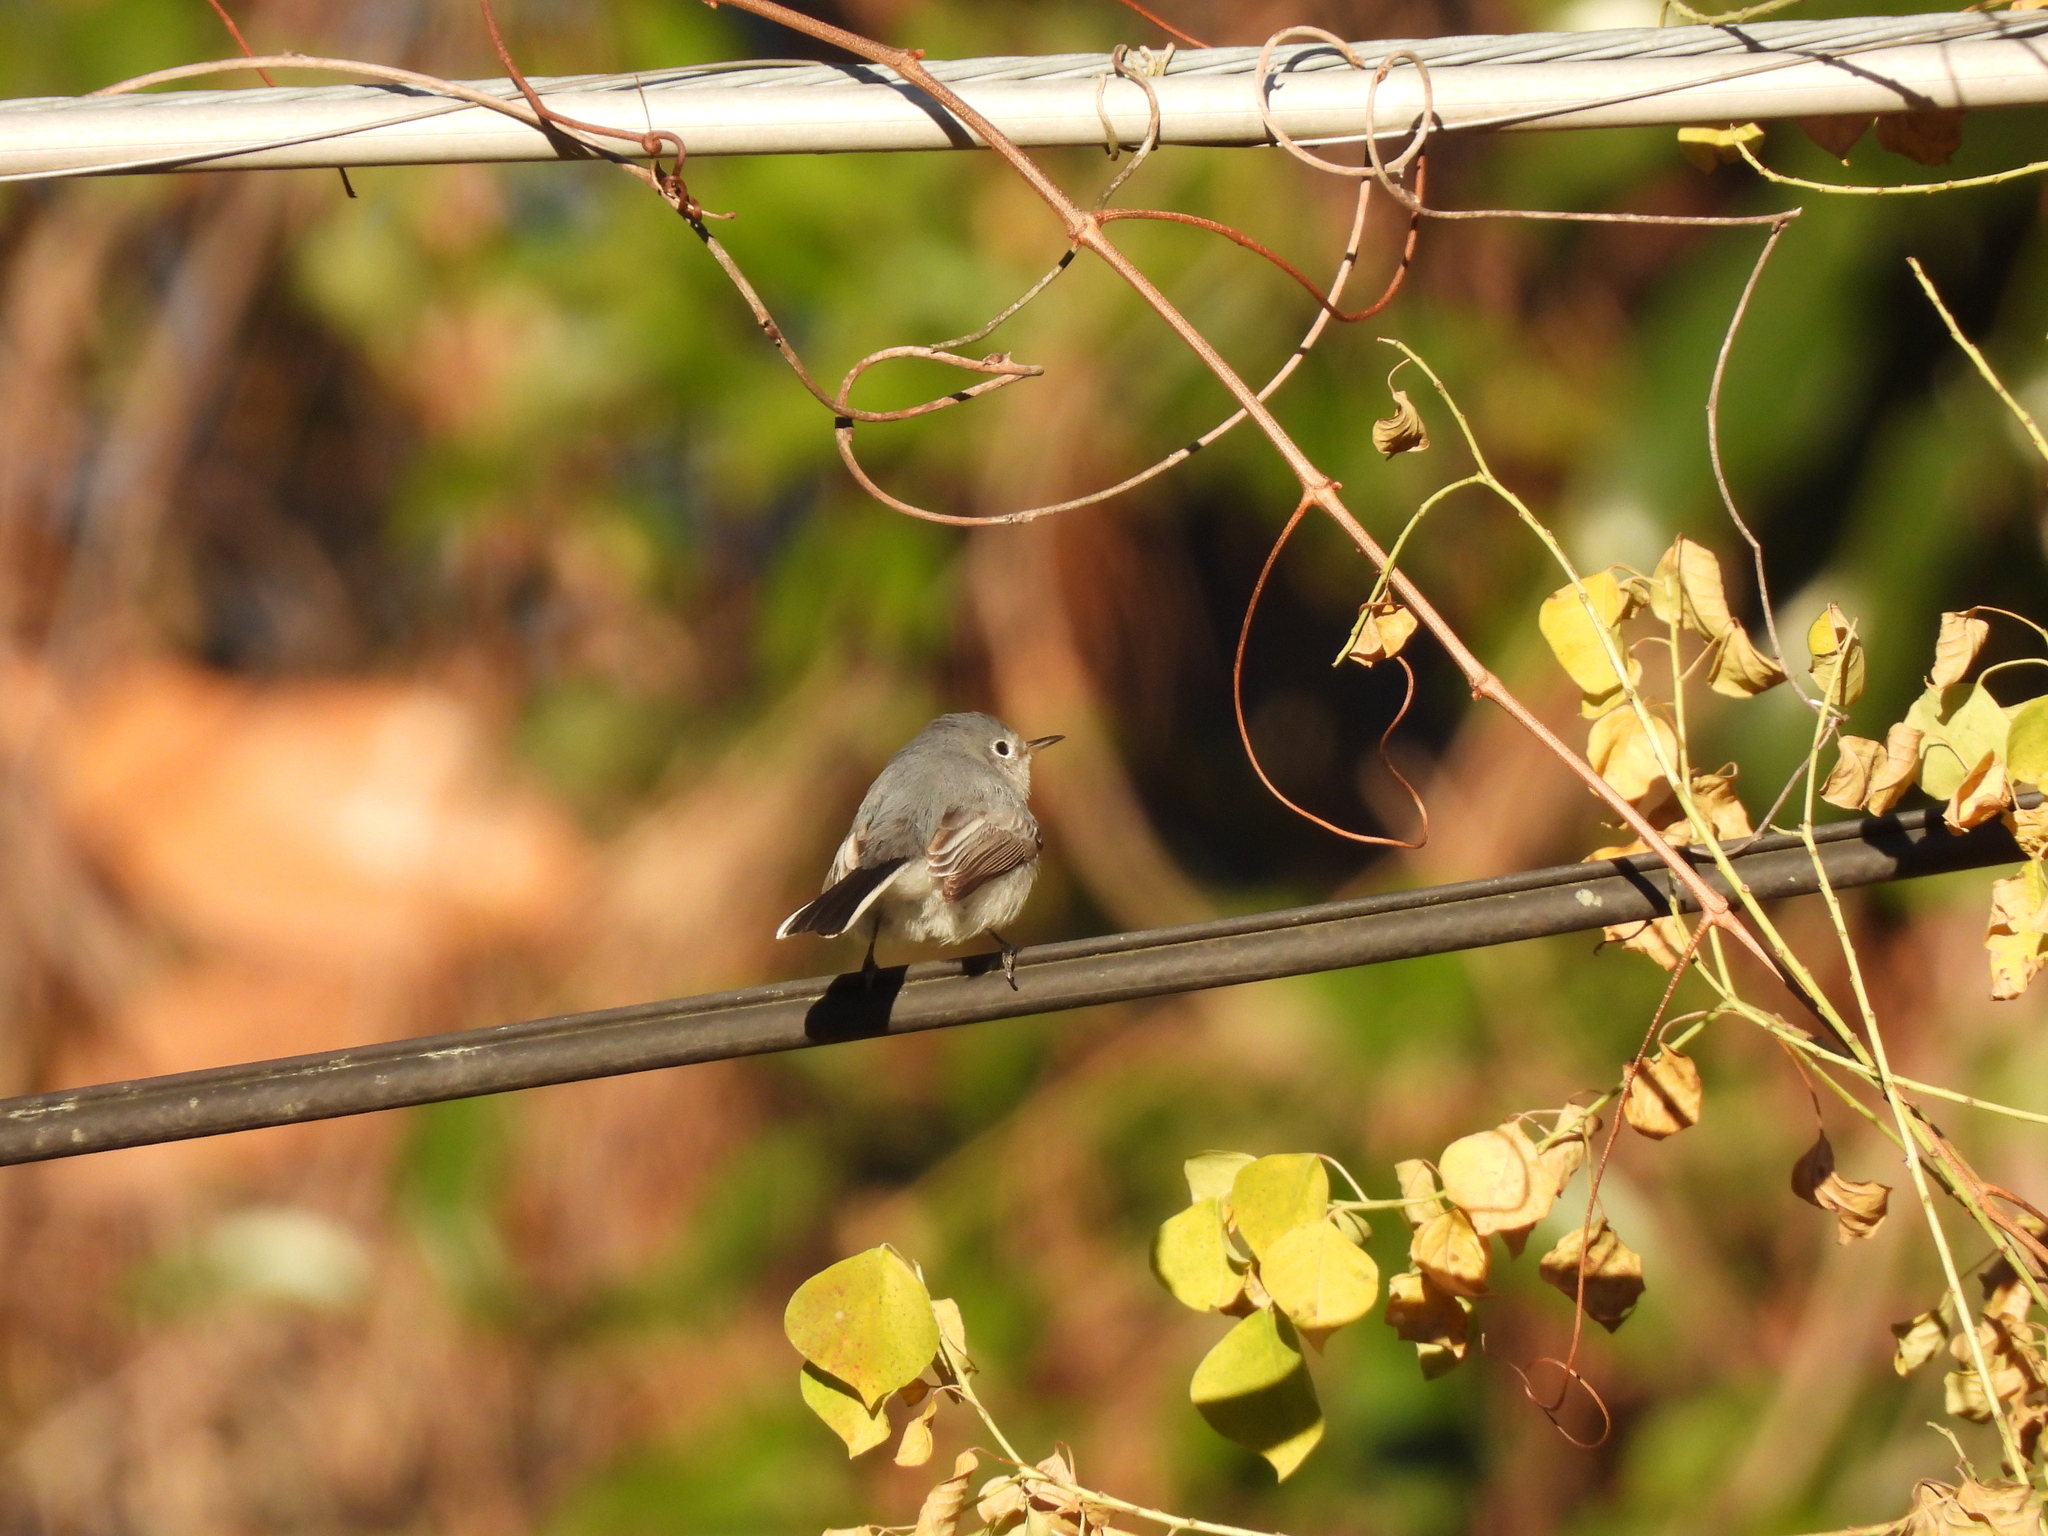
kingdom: Animalia
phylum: Chordata
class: Aves
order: Passeriformes
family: Polioptilidae
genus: Polioptila
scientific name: Polioptila caerulea
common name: Blue-gray gnatcatcher
